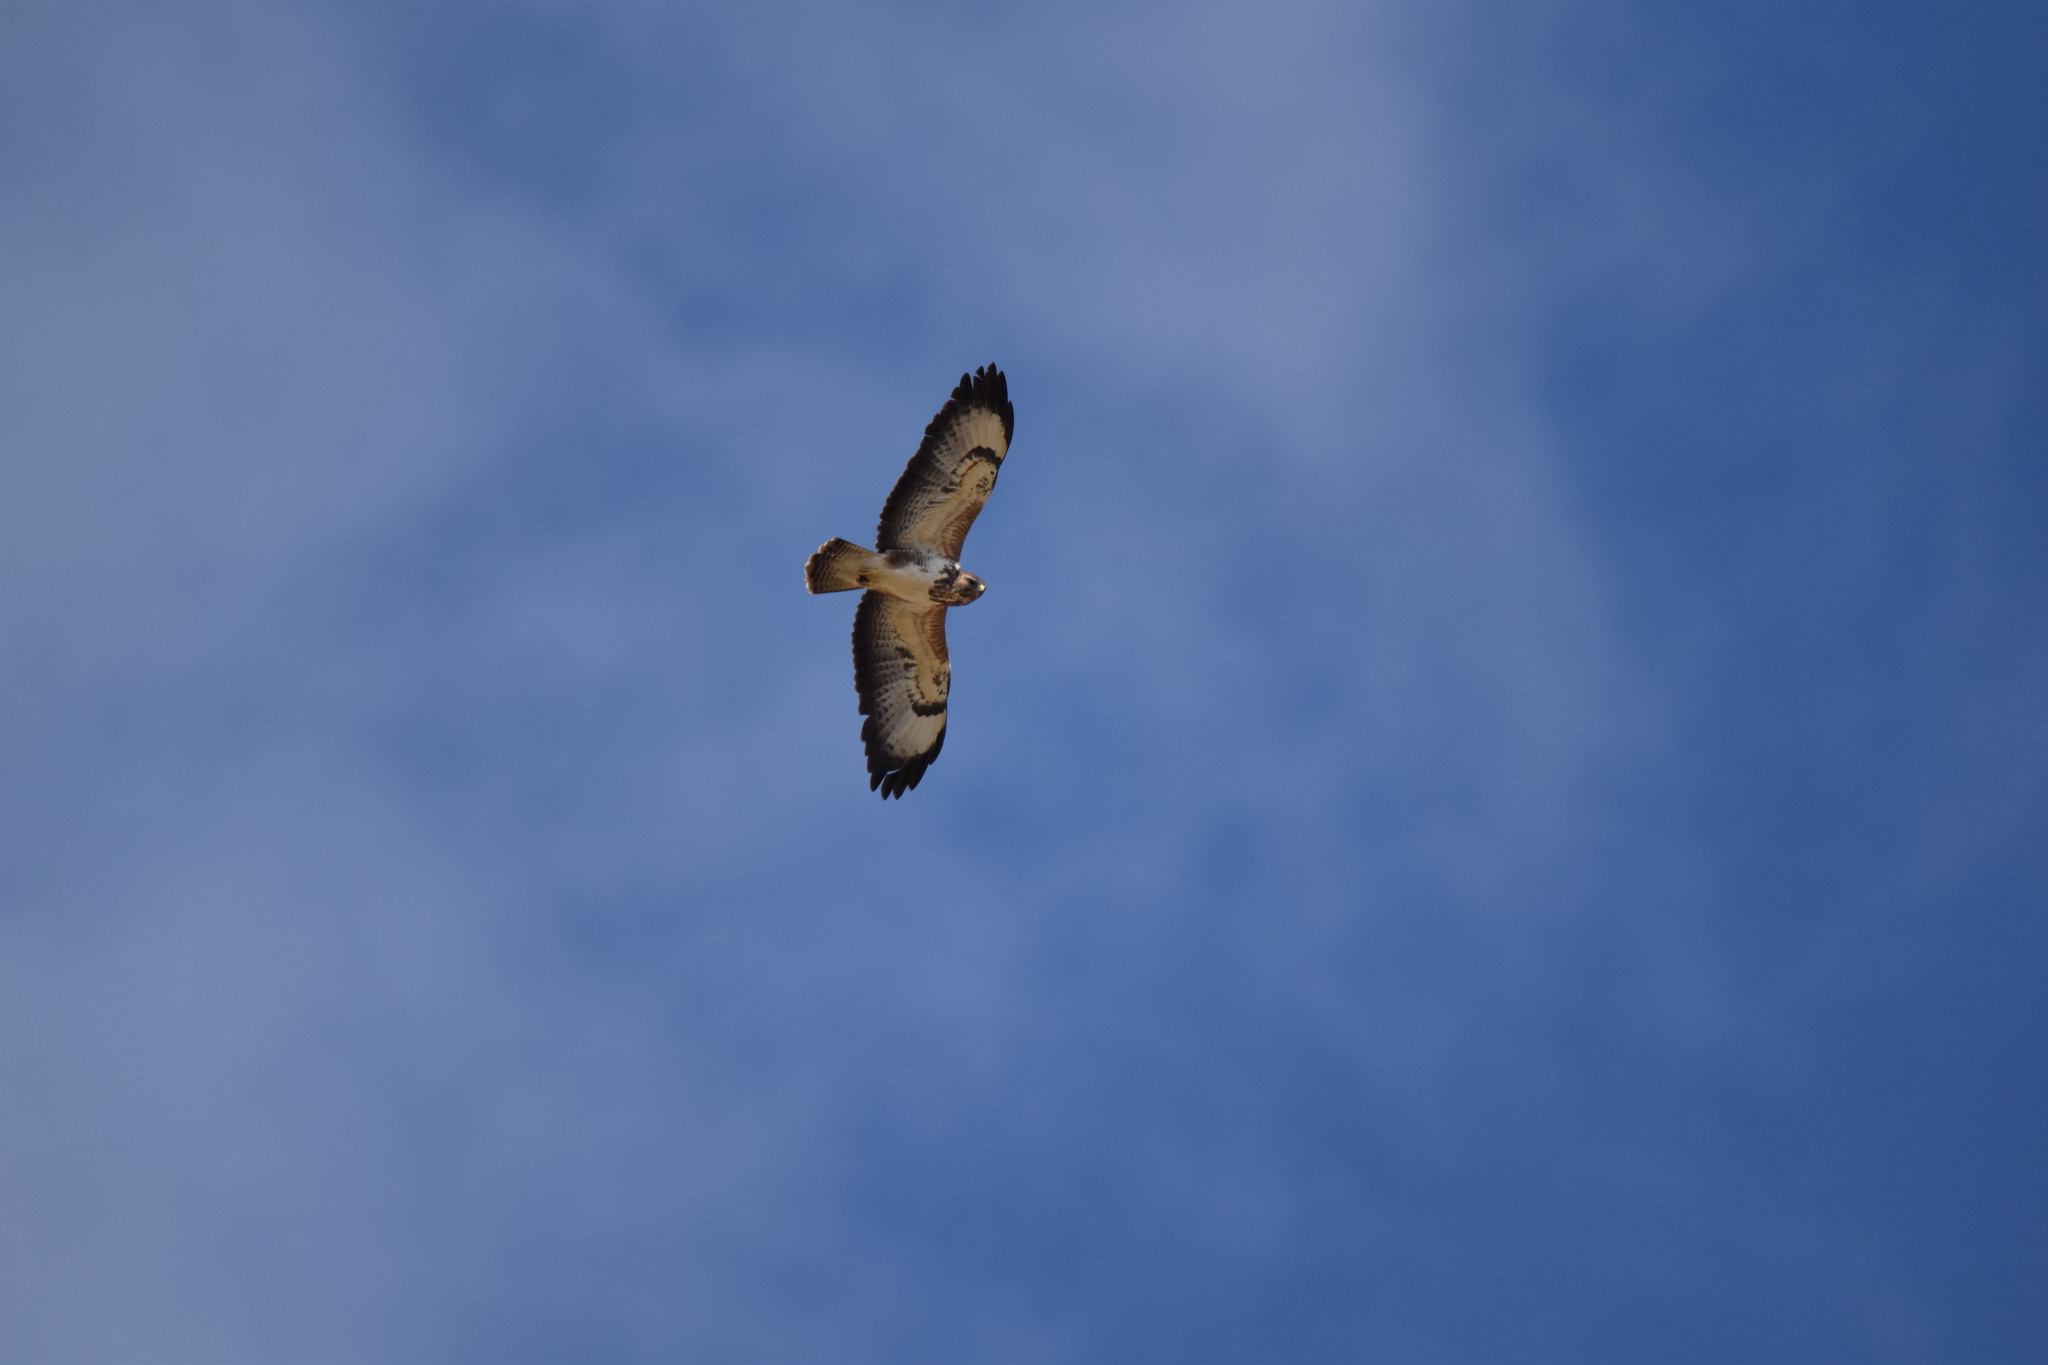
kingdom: Animalia
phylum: Chordata
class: Aves
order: Accipitriformes
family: Accipitridae
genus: Buteo
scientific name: Buteo buteo
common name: Common buzzard
